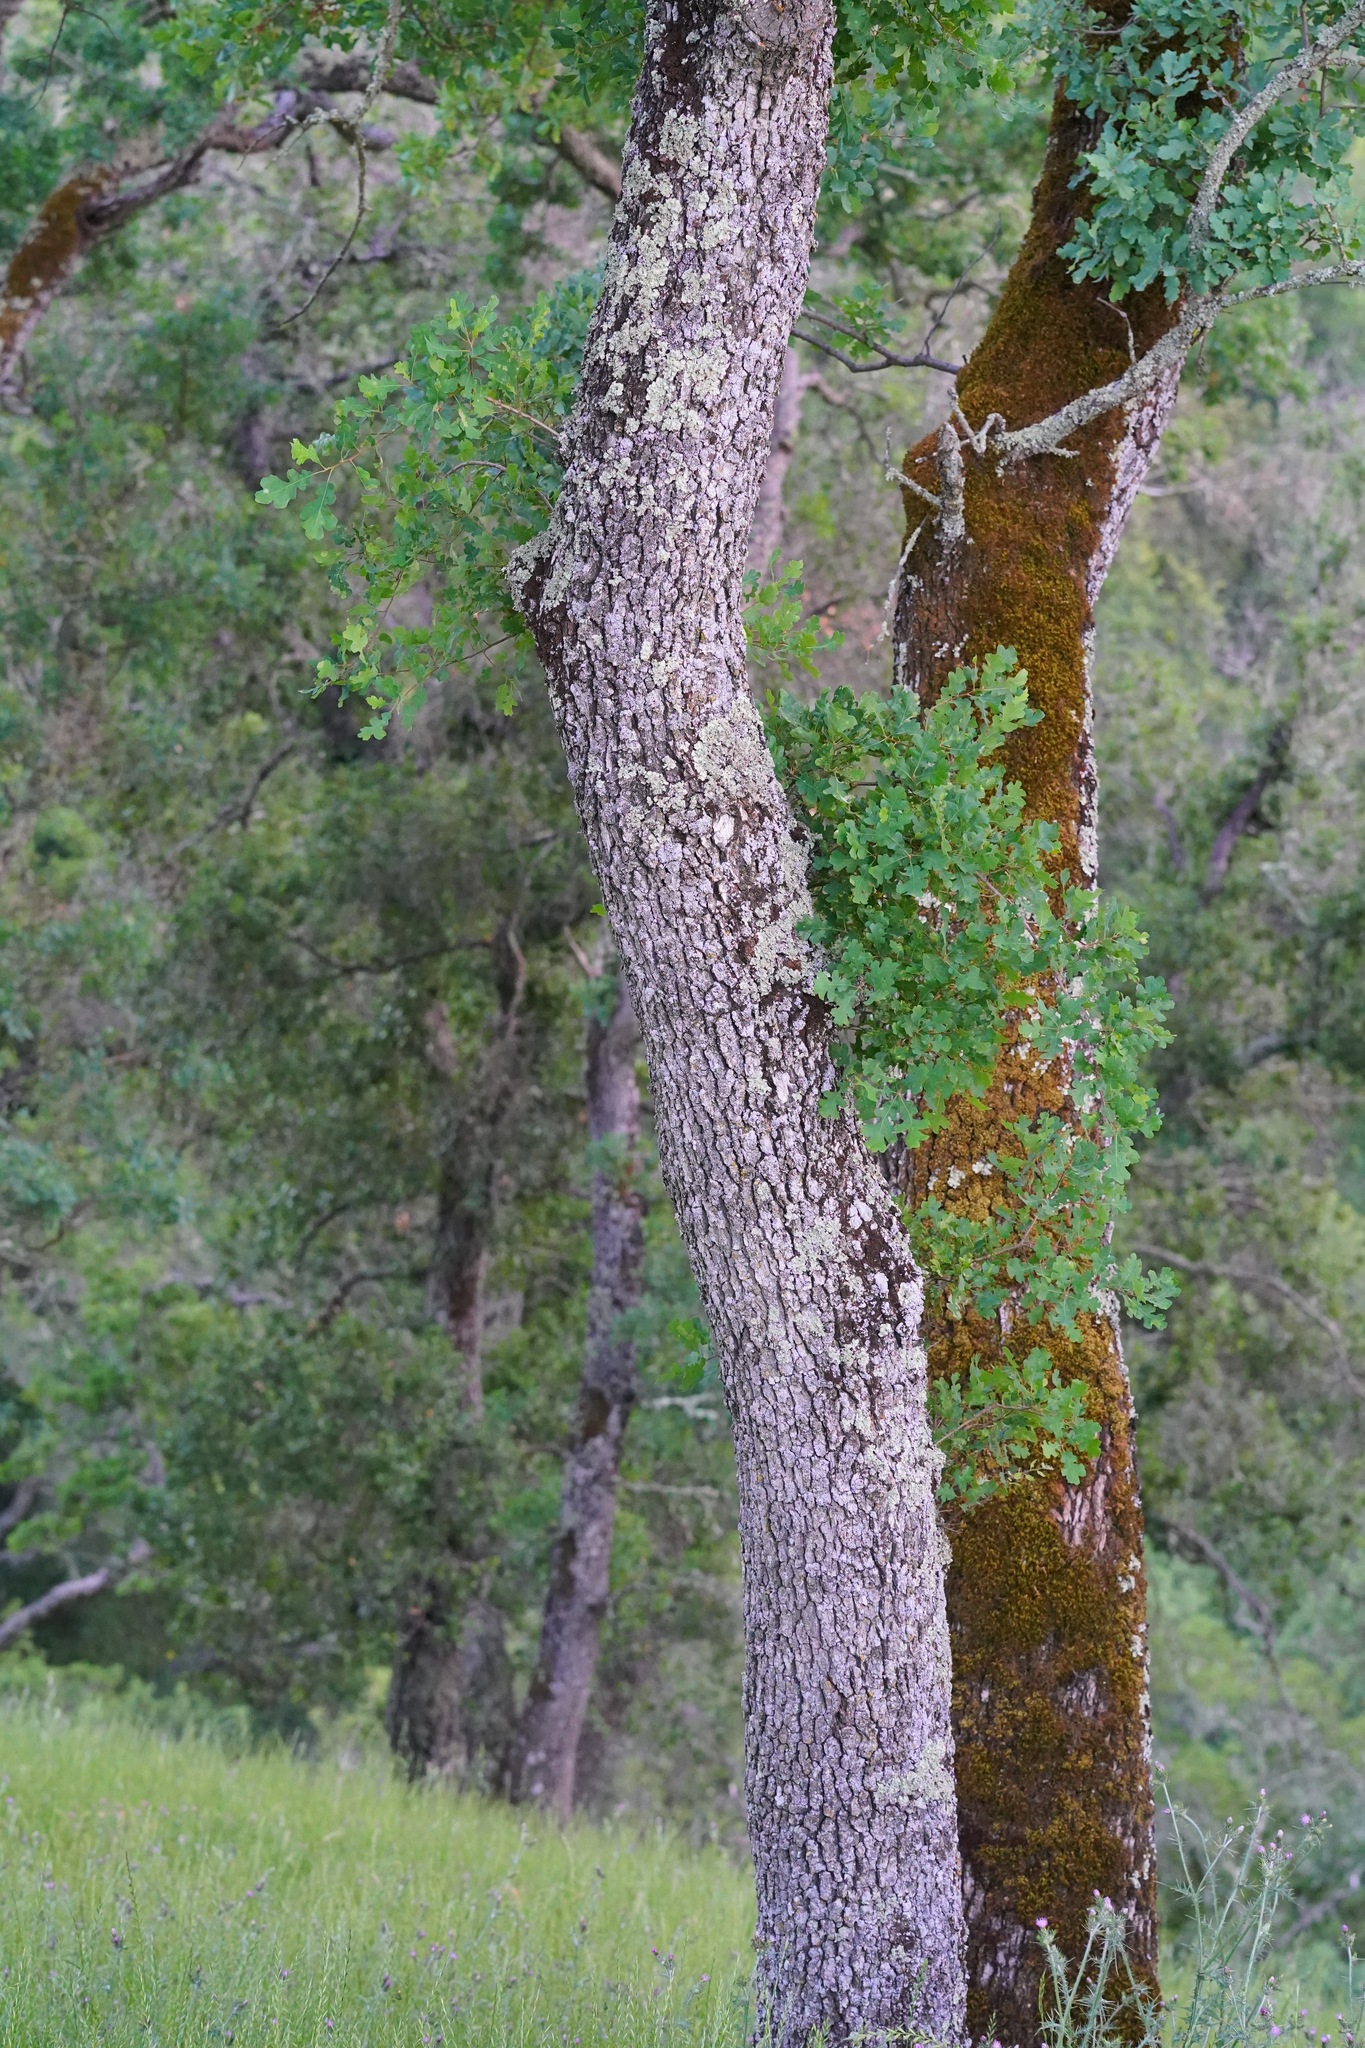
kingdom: Plantae
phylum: Tracheophyta
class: Magnoliopsida
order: Fagales
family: Fagaceae
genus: Quercus
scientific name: Quercus garryana
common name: Garry oak
